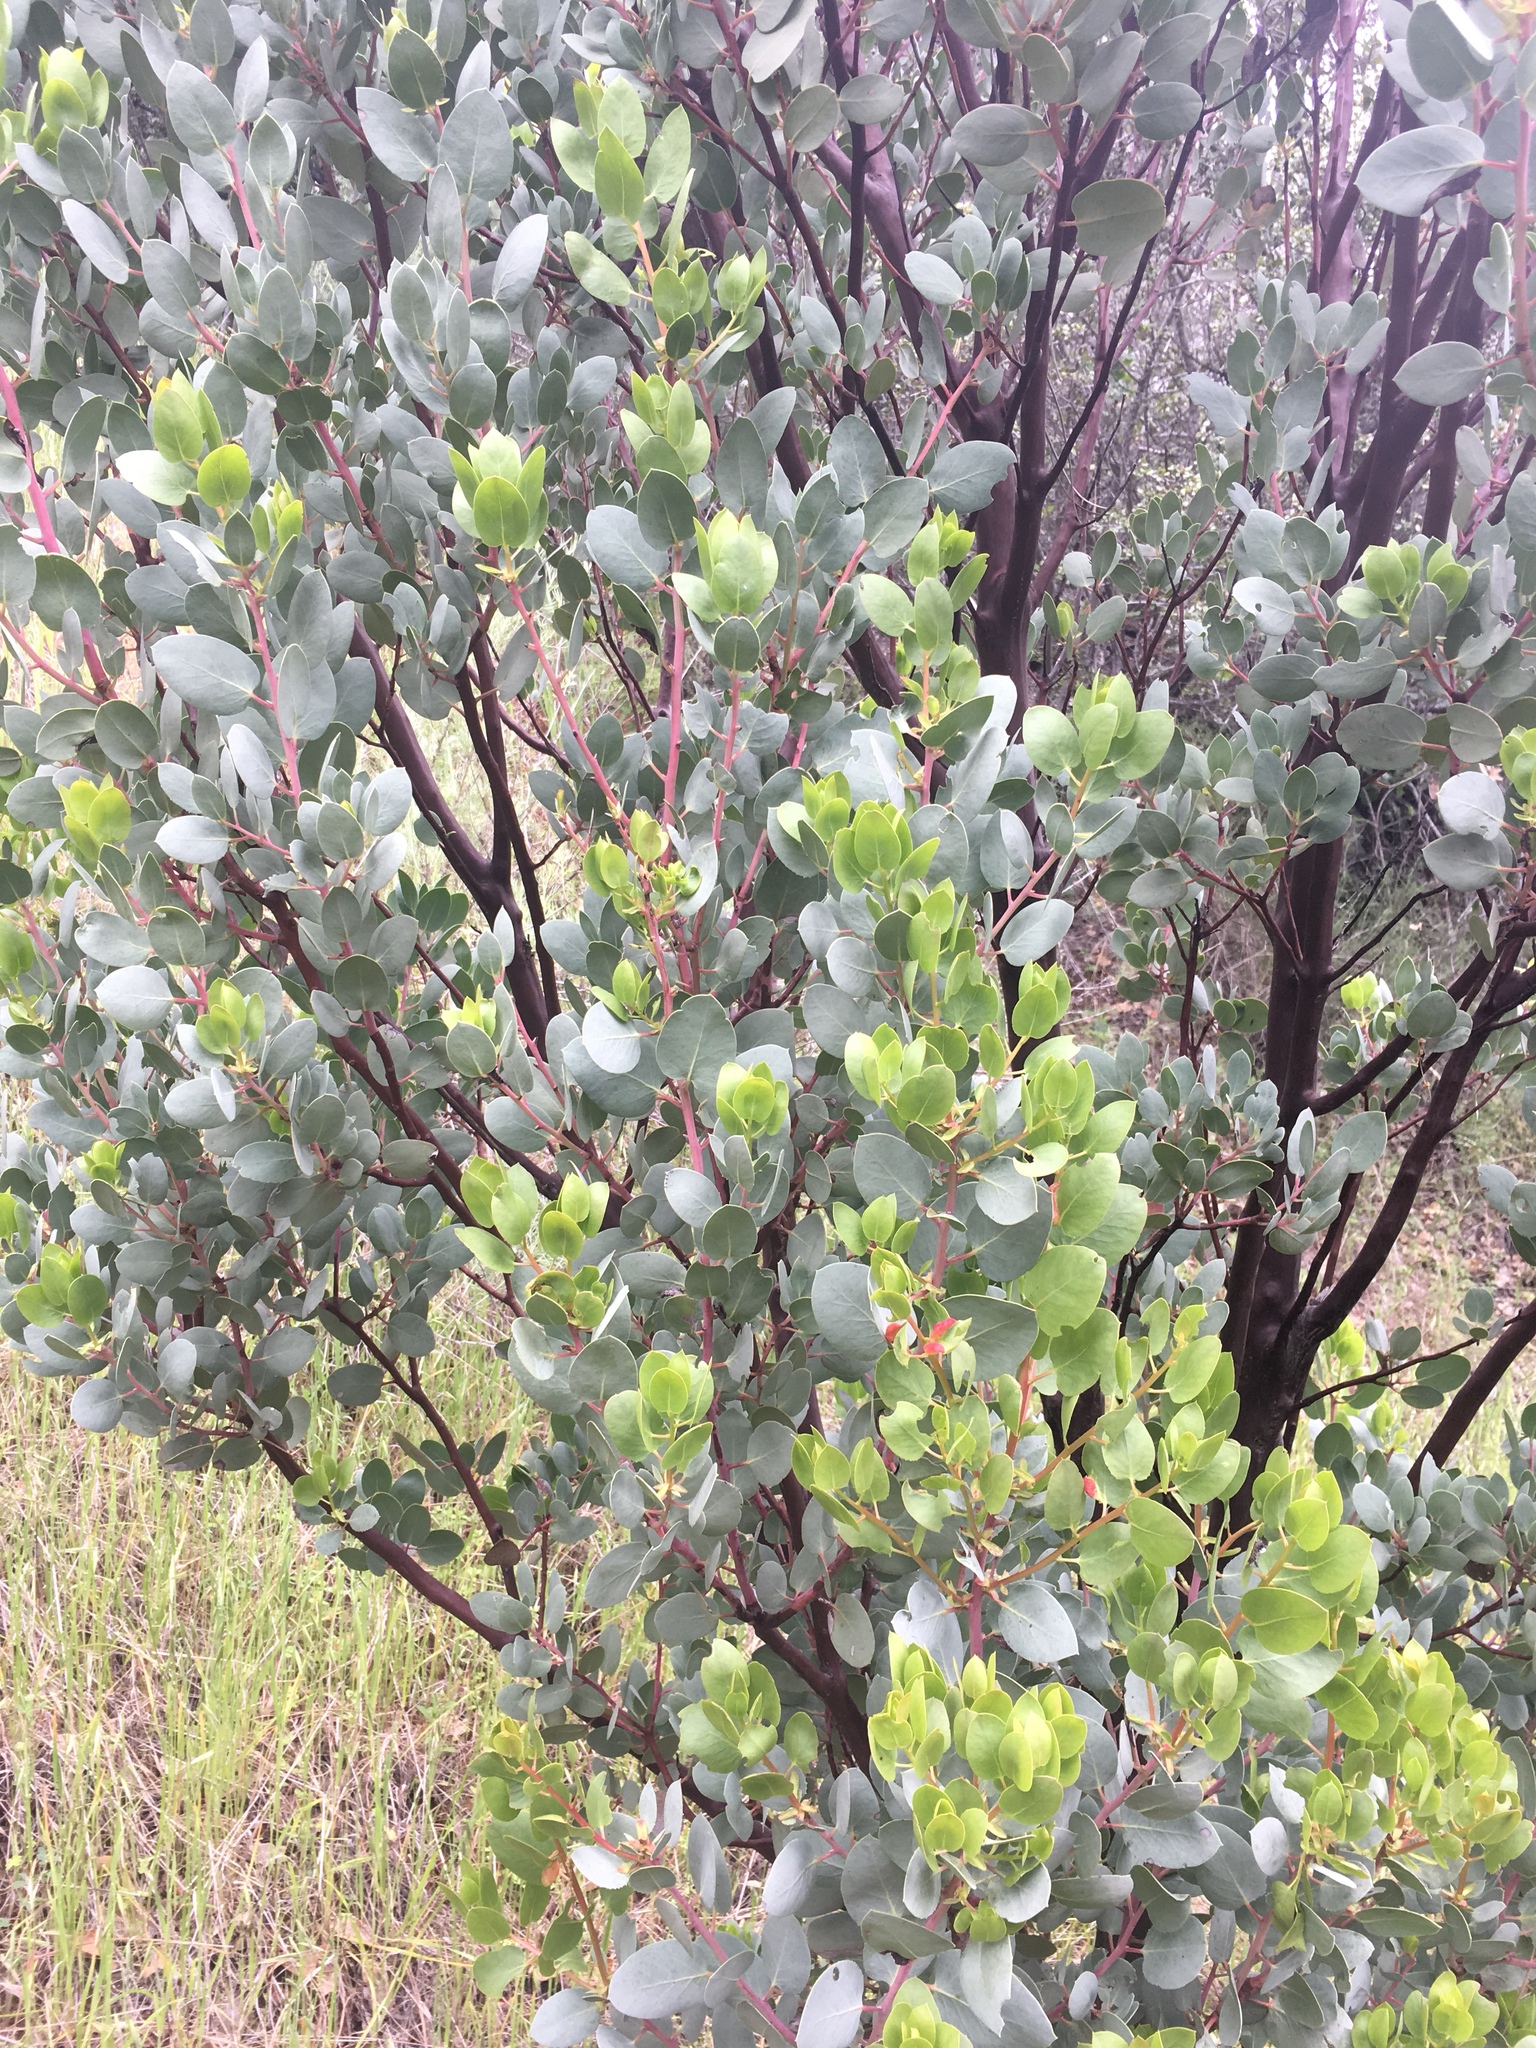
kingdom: Plantae
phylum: Tracheophyta
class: Magnoliopsida
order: Ericales
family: Ericaceae
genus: Arctostaphylos
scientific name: Arctostaphylos glauca
